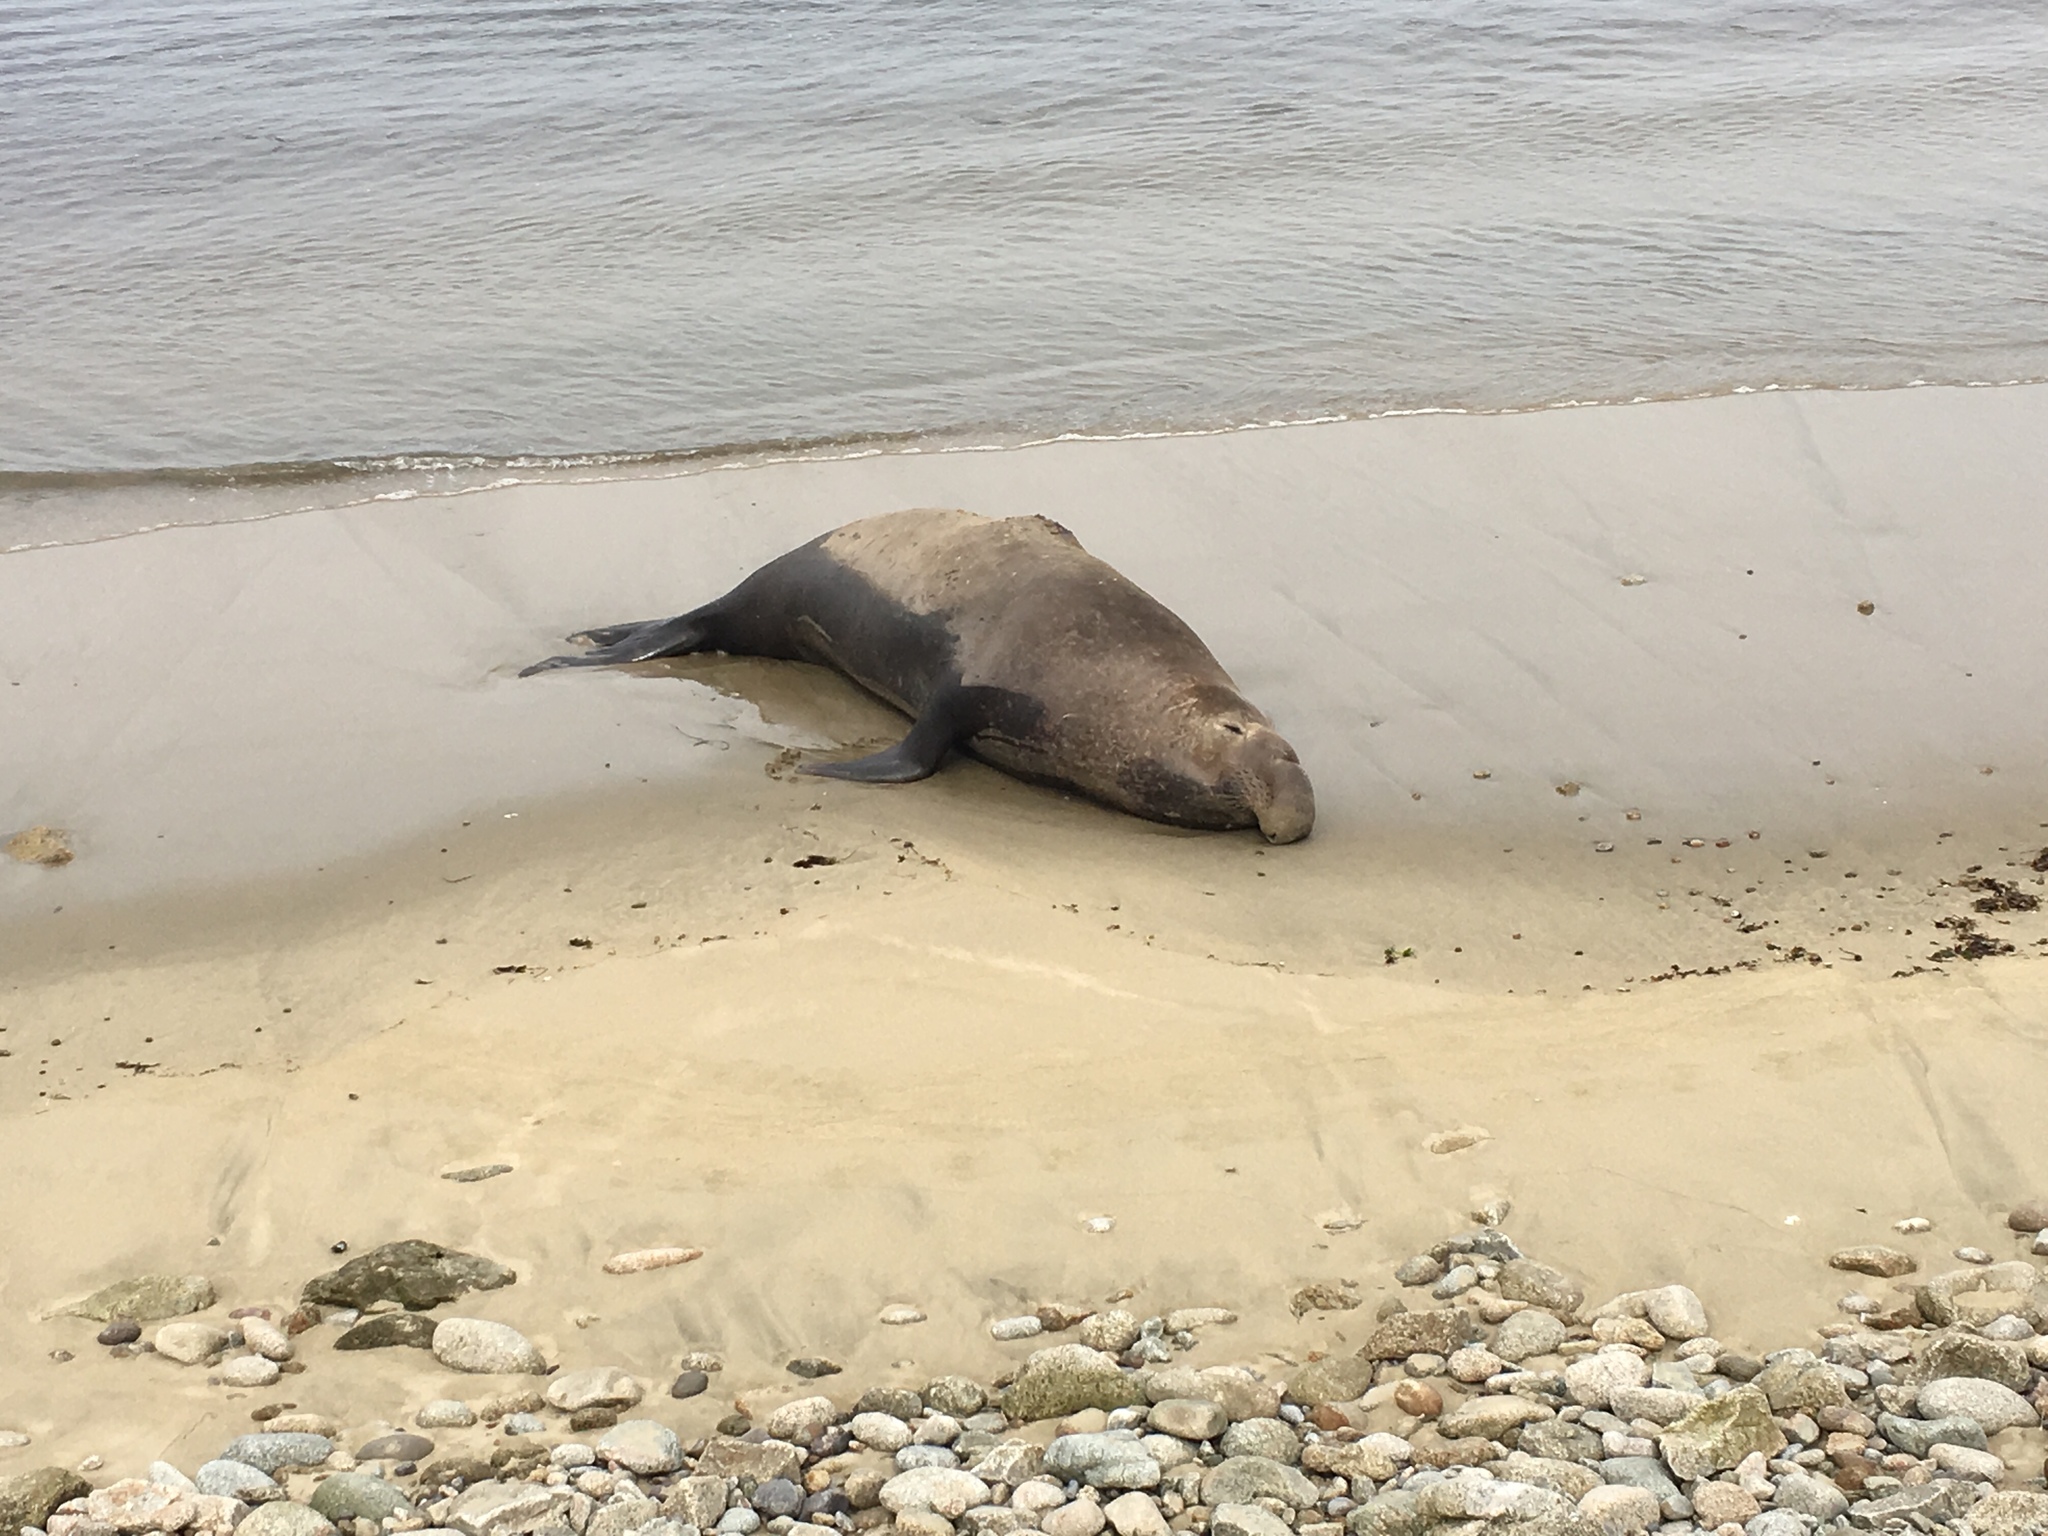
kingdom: Animalia
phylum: Chordata
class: Mammalia
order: Carnivora
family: Phocidae
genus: Mirounga
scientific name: Mirounga angustirostris
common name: Northern elephant seal
